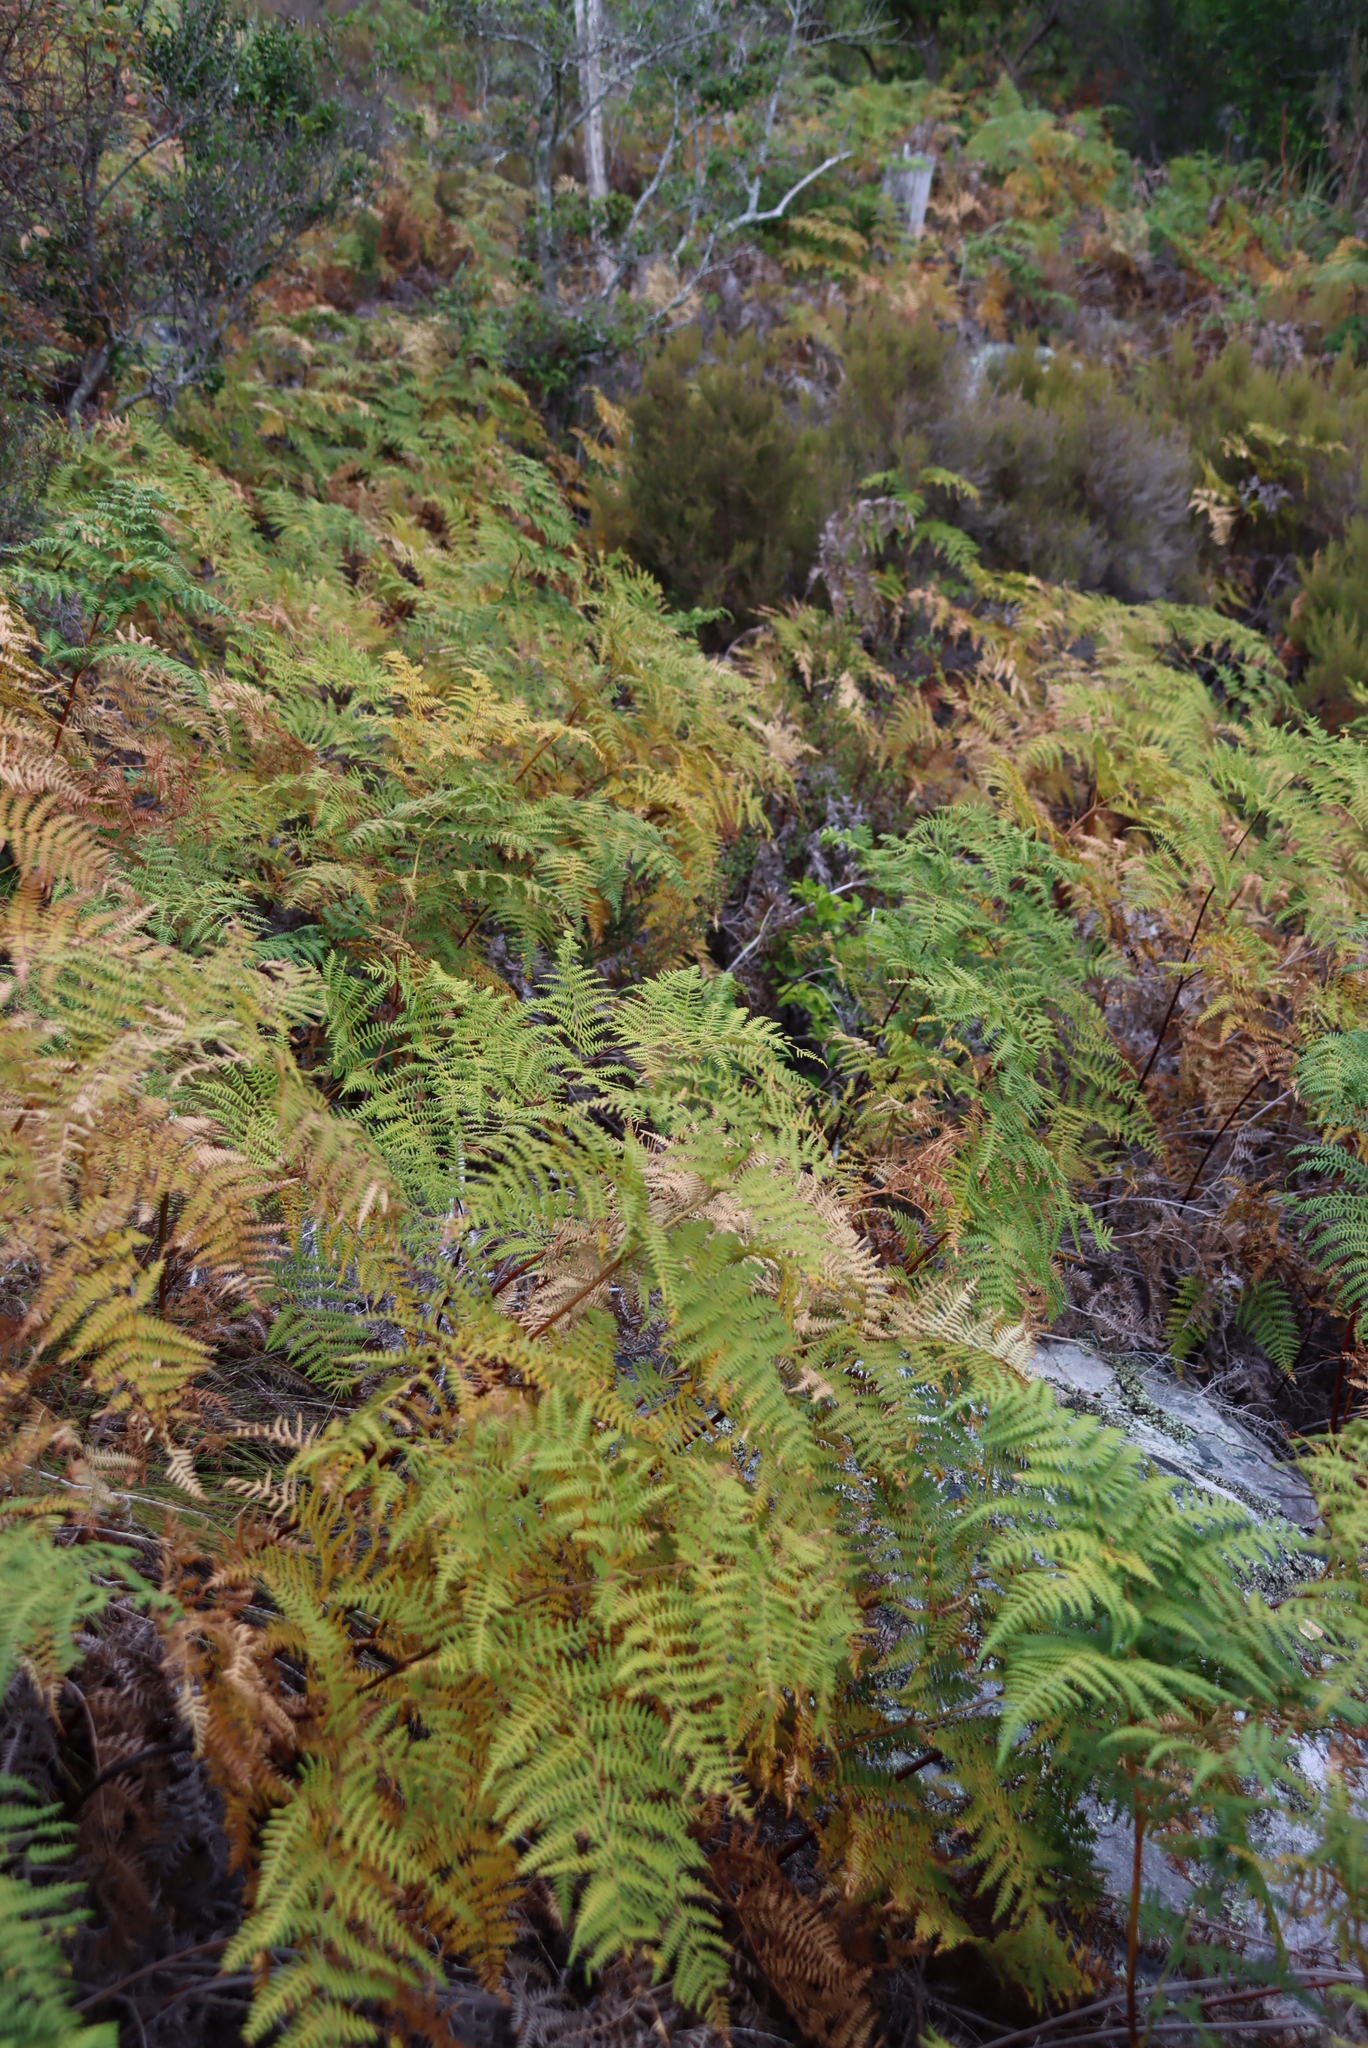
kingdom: Plantae
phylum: Tracheophyta
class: Polypodiopsida
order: Polypodiales
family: Dennstaedtiaceae
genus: Pteridium
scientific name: Pteridium aquilinum
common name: Bracken
